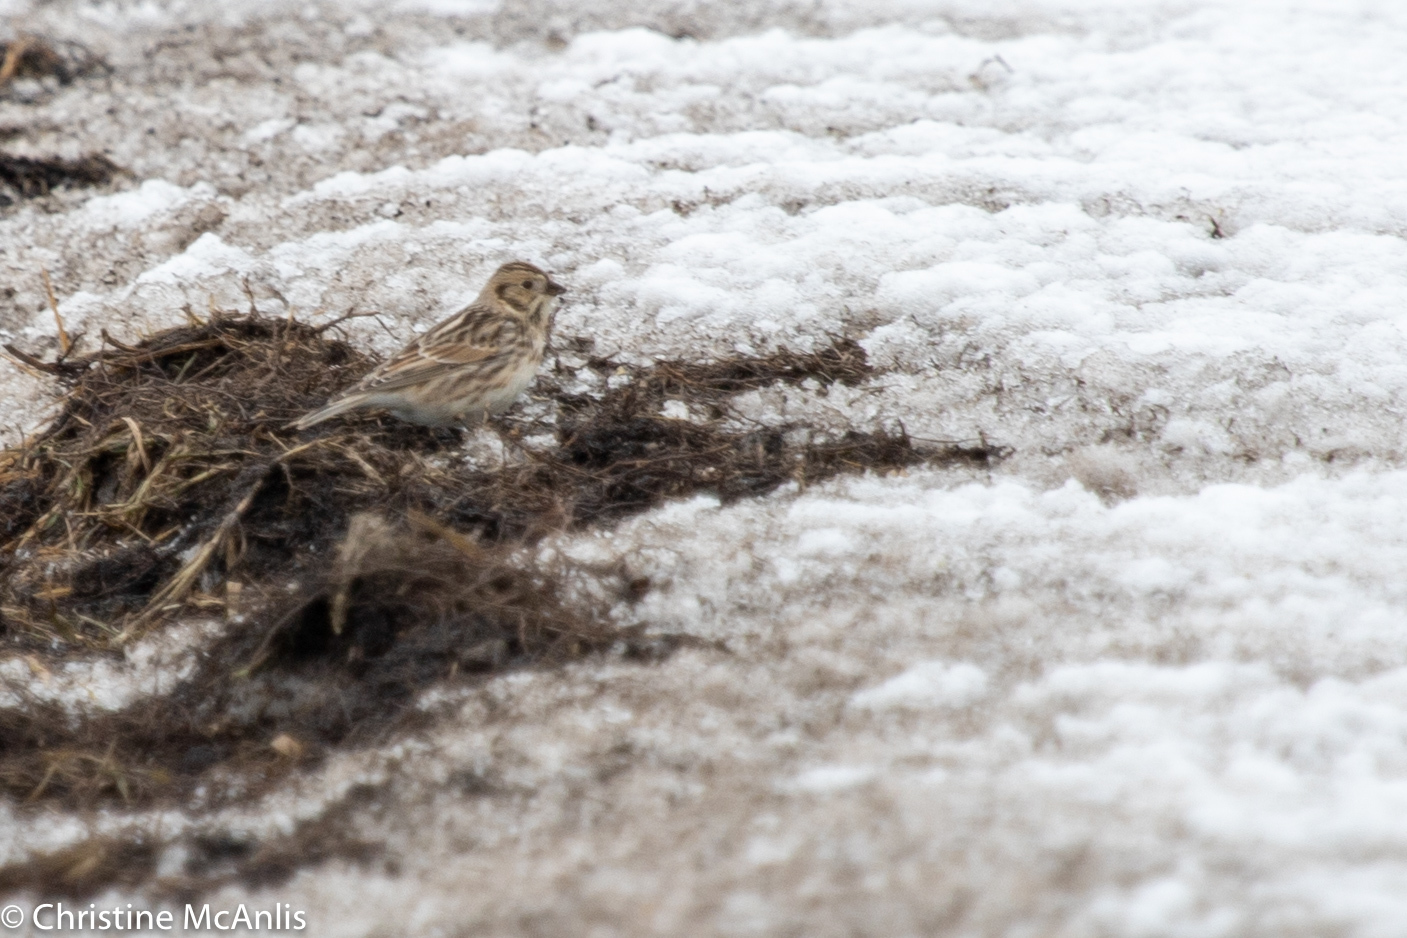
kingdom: Animalia
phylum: Chordata
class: Aves
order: Passeriformes
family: Calcariidae
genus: Calcarius
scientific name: Calcarius lapponicus
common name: Lapland longspur
